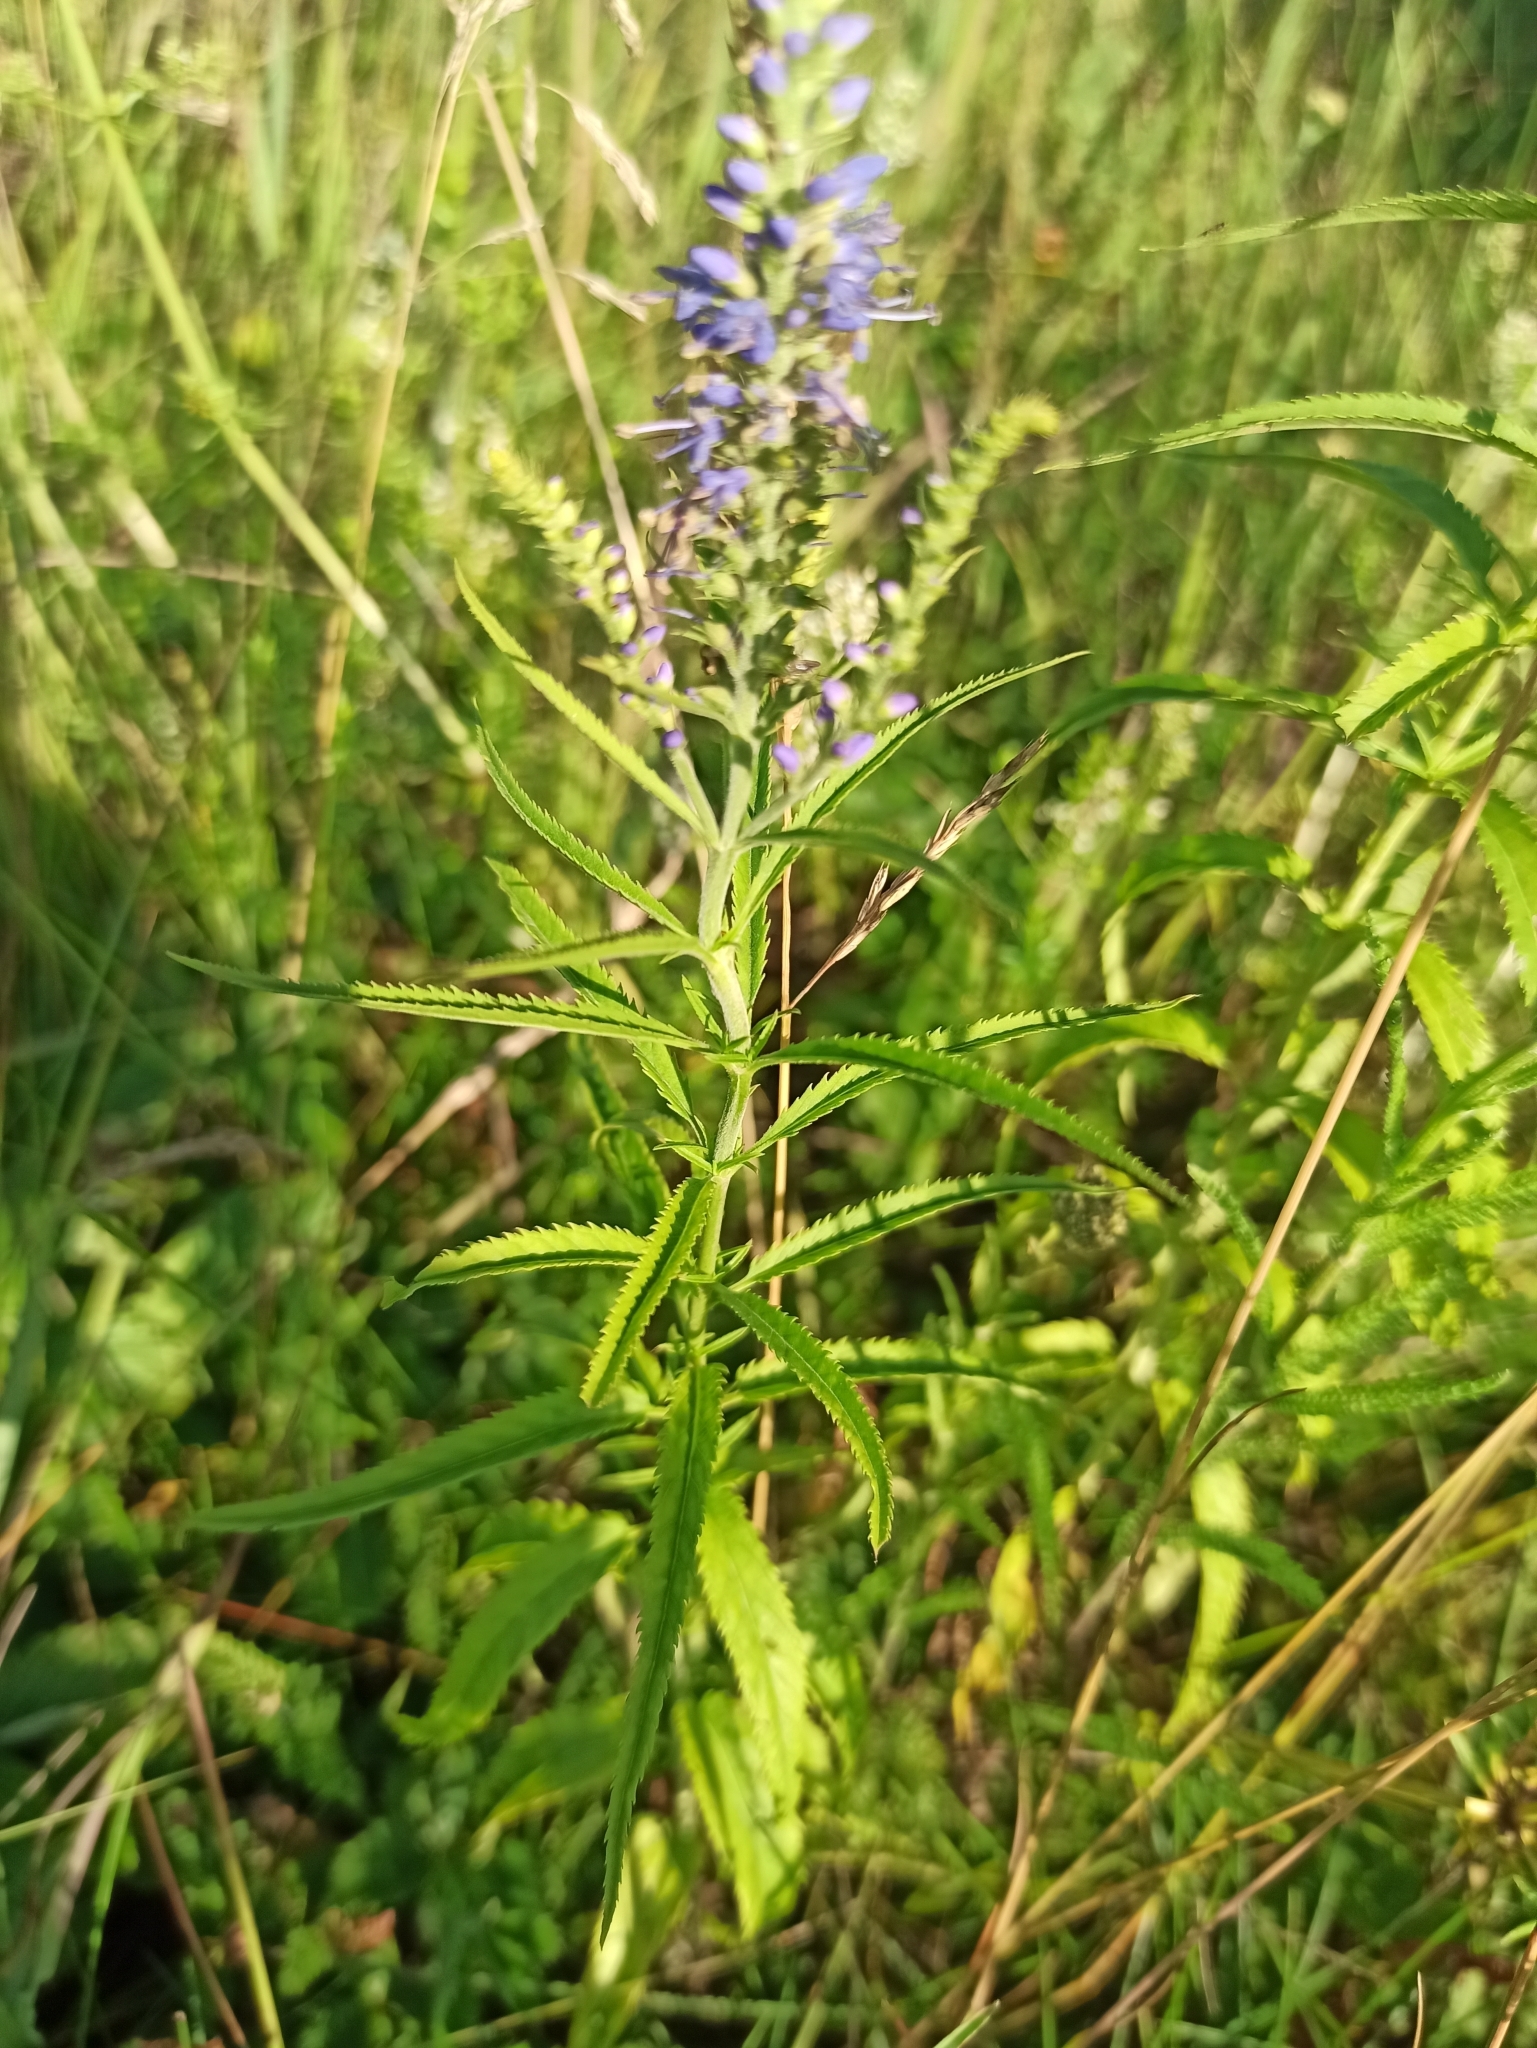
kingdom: Plantae
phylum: Tracheophyta
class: Magnoliopsida
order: Lamiales
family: Plantaginaceae
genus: Veronica
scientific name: Veronica longifolia
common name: Garden speedwell
